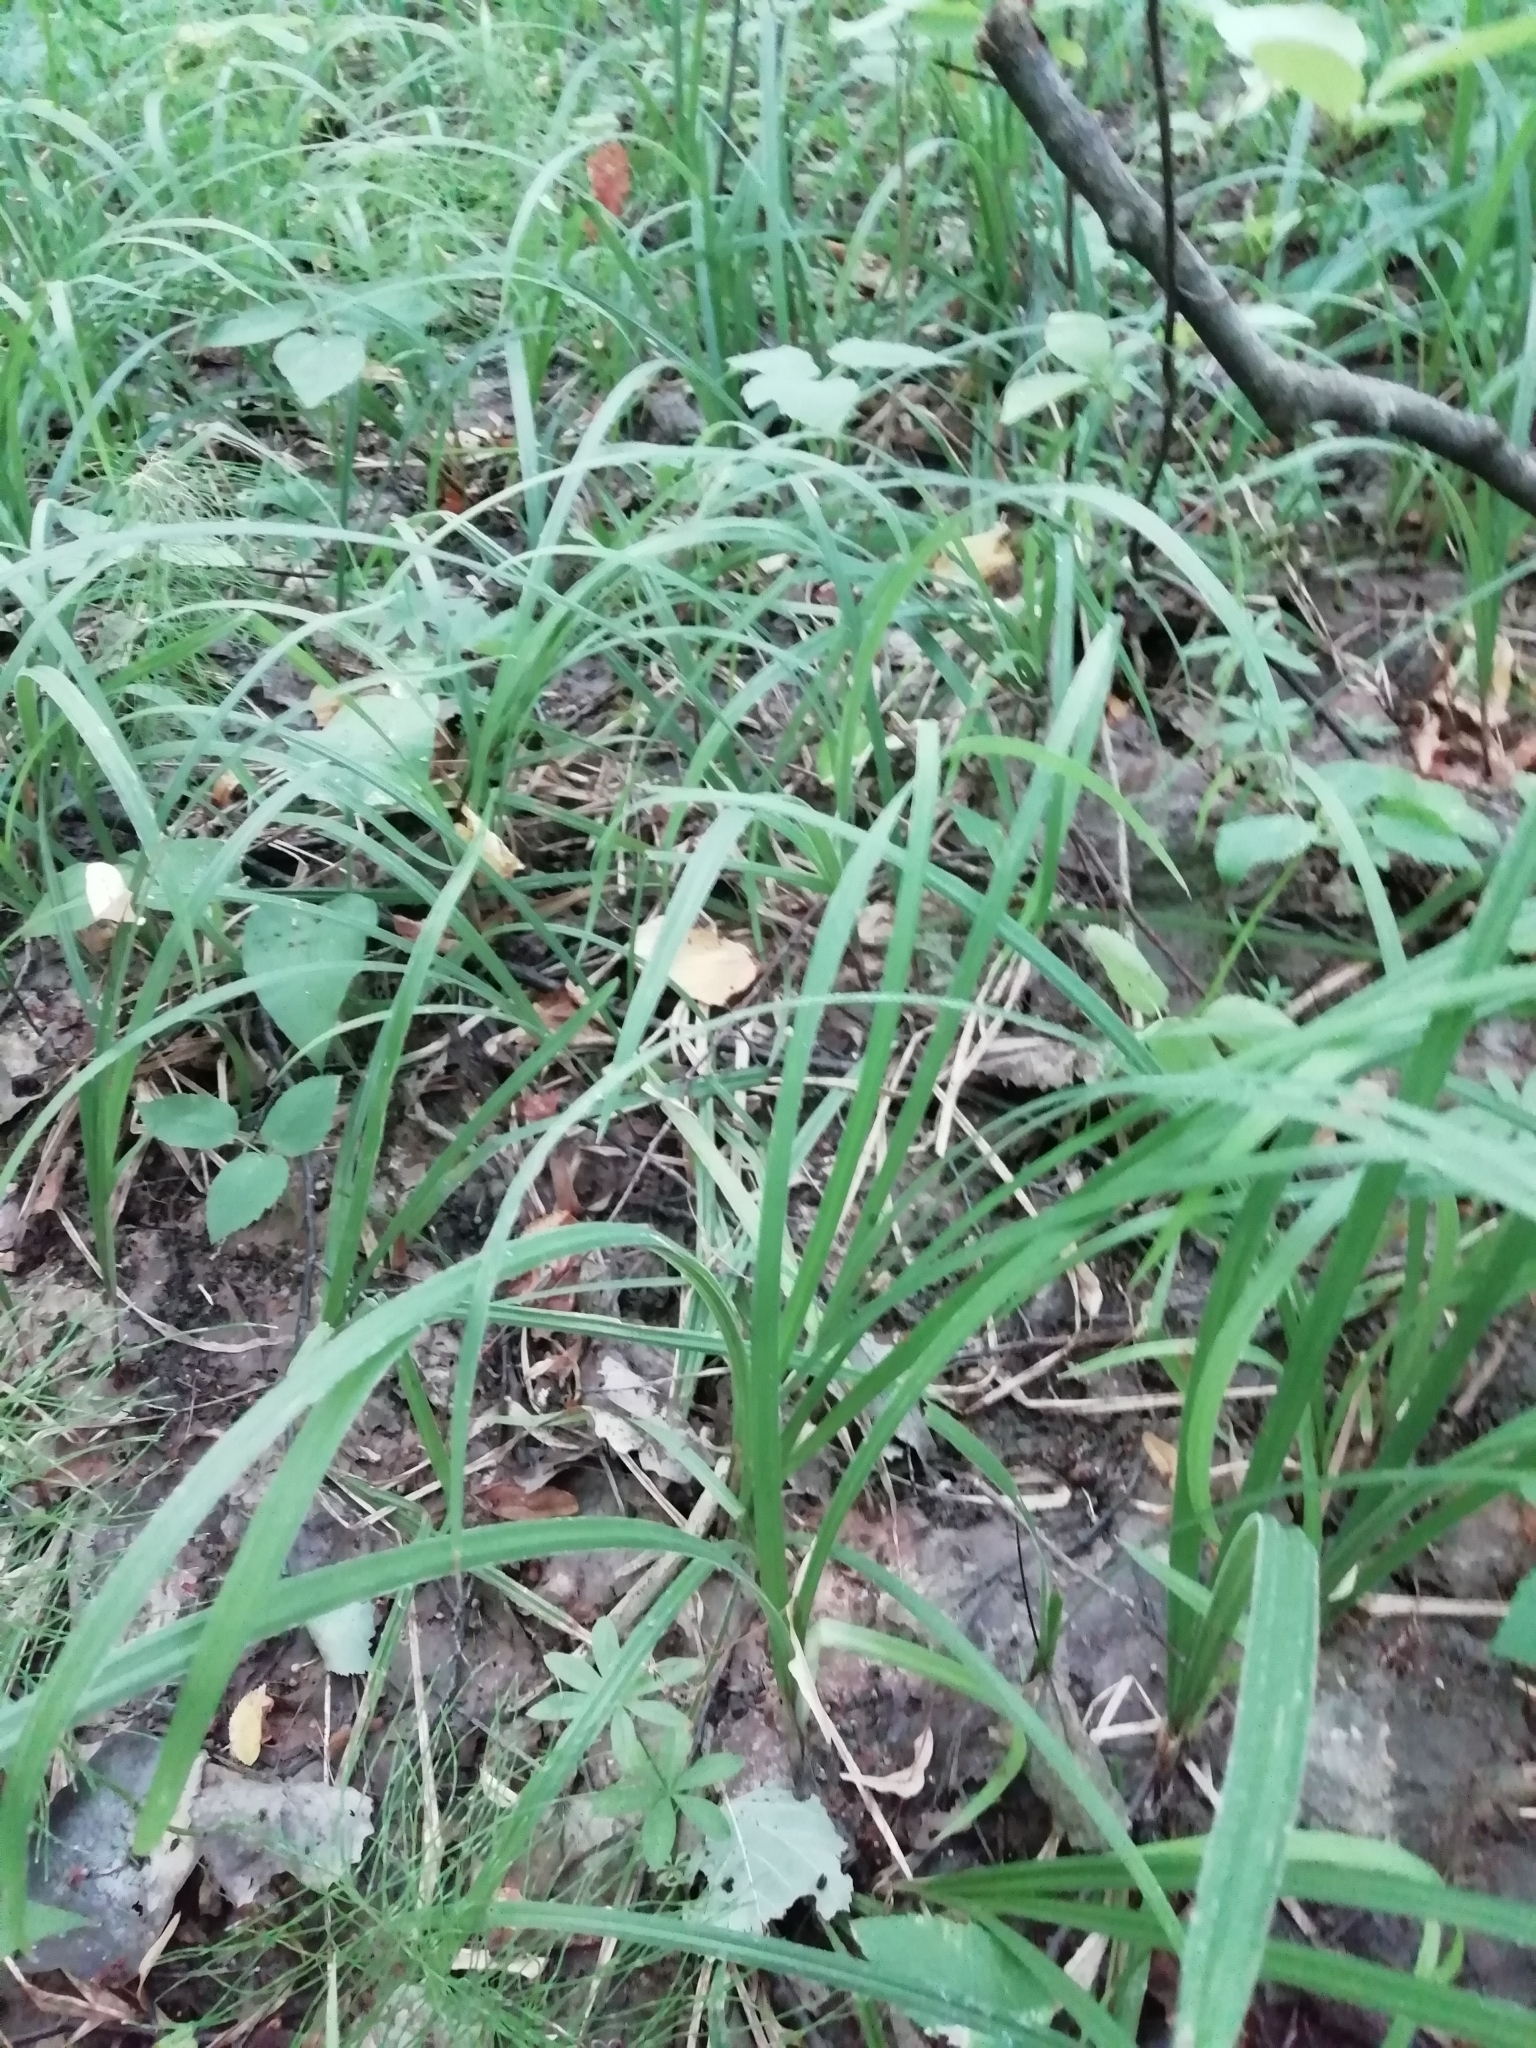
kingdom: Plantae
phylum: Tracheophyta
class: Liliopsida
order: Poales
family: Cyperaceae
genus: Carex
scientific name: Carex pilosa
